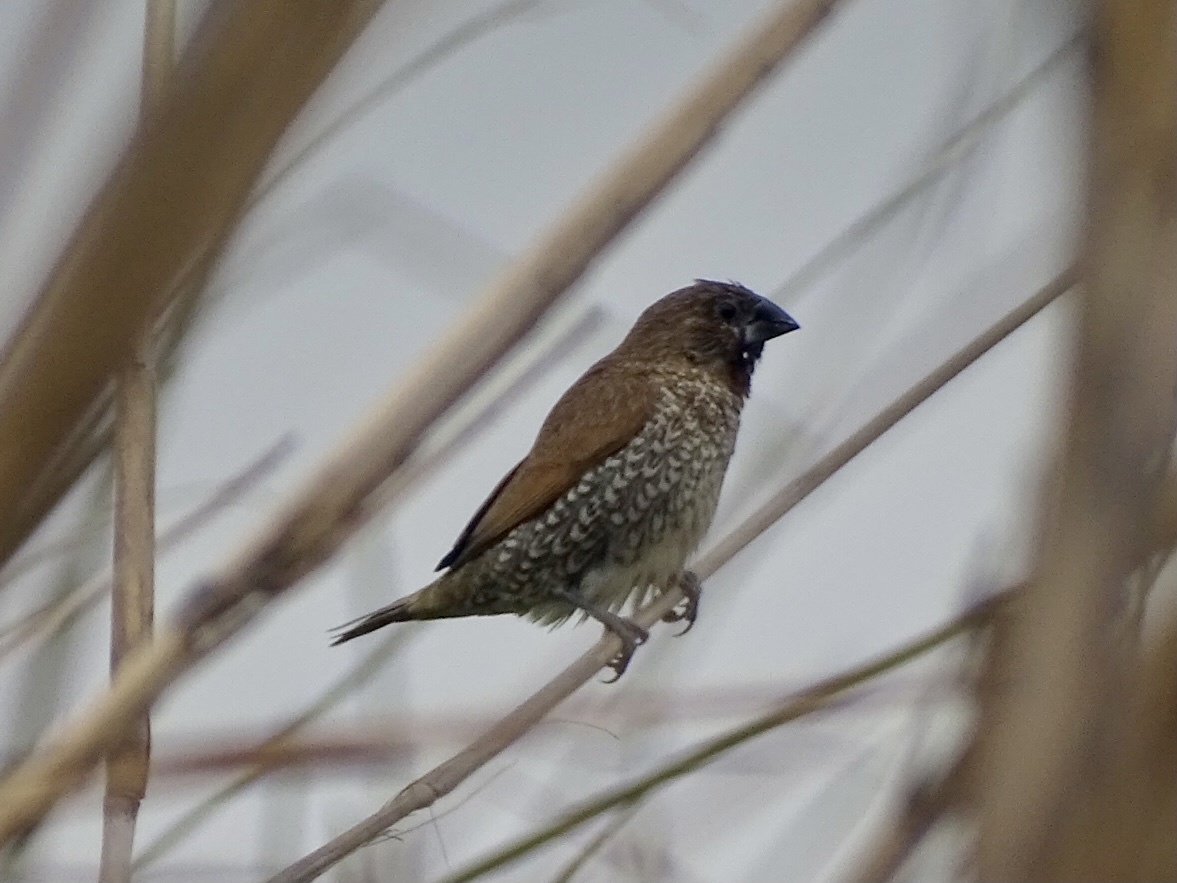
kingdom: Animalia
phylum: Chordata
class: Aves
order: Passeriformes
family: Estrildidae
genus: Lonchura
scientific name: Lonchura punctulata
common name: Scaly-breasted munia
